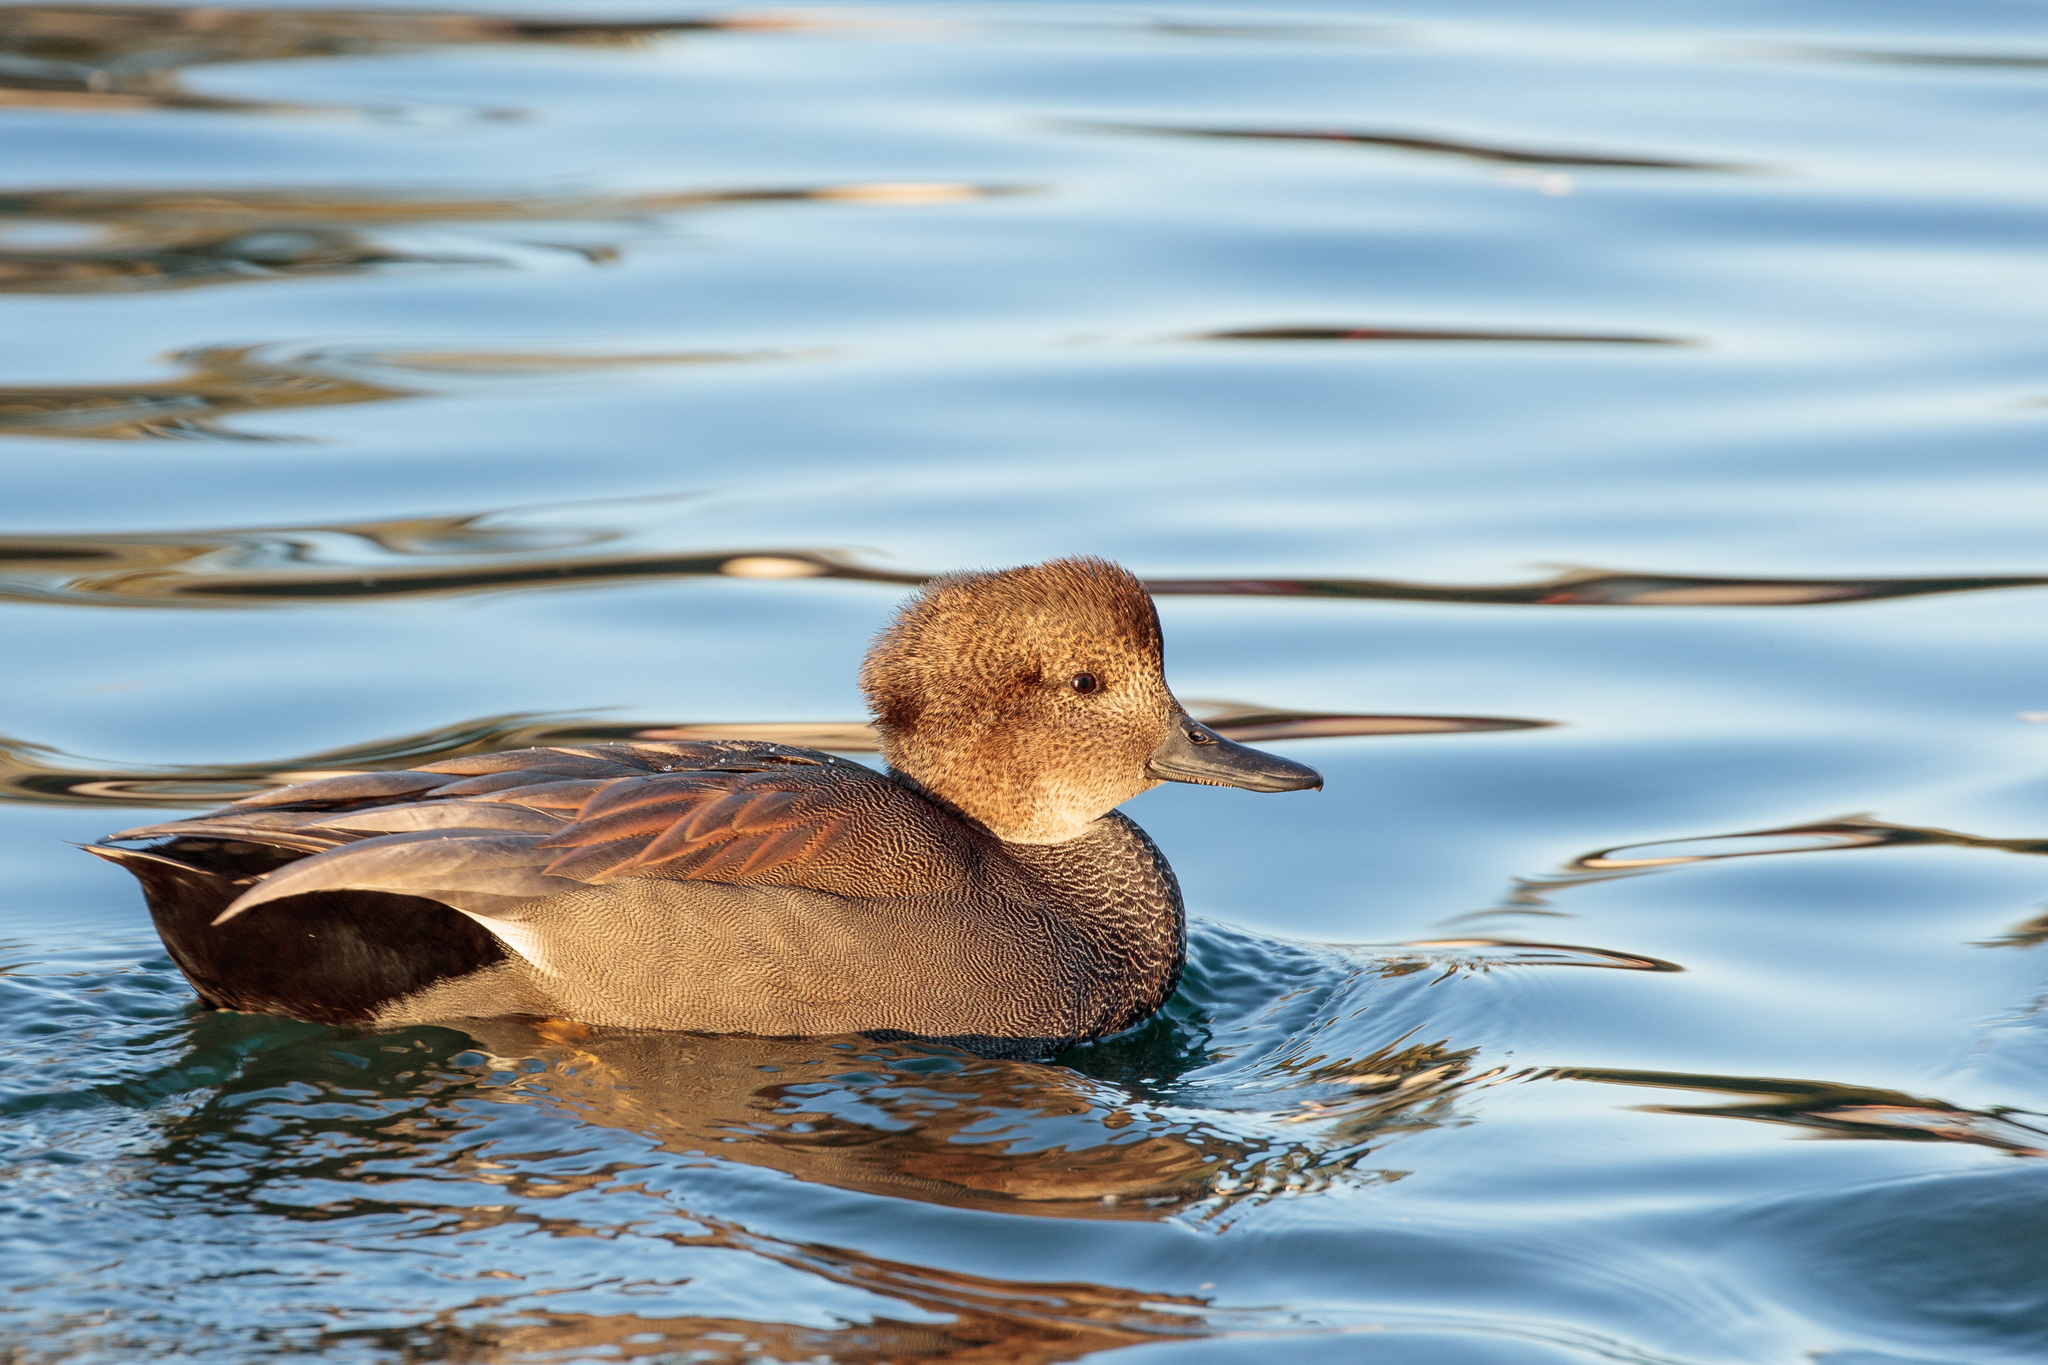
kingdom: Animalia
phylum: Chordata
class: Aves
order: Anseriformes
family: Anatidae
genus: Mareca
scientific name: Mareca strepera
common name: Gadwall
